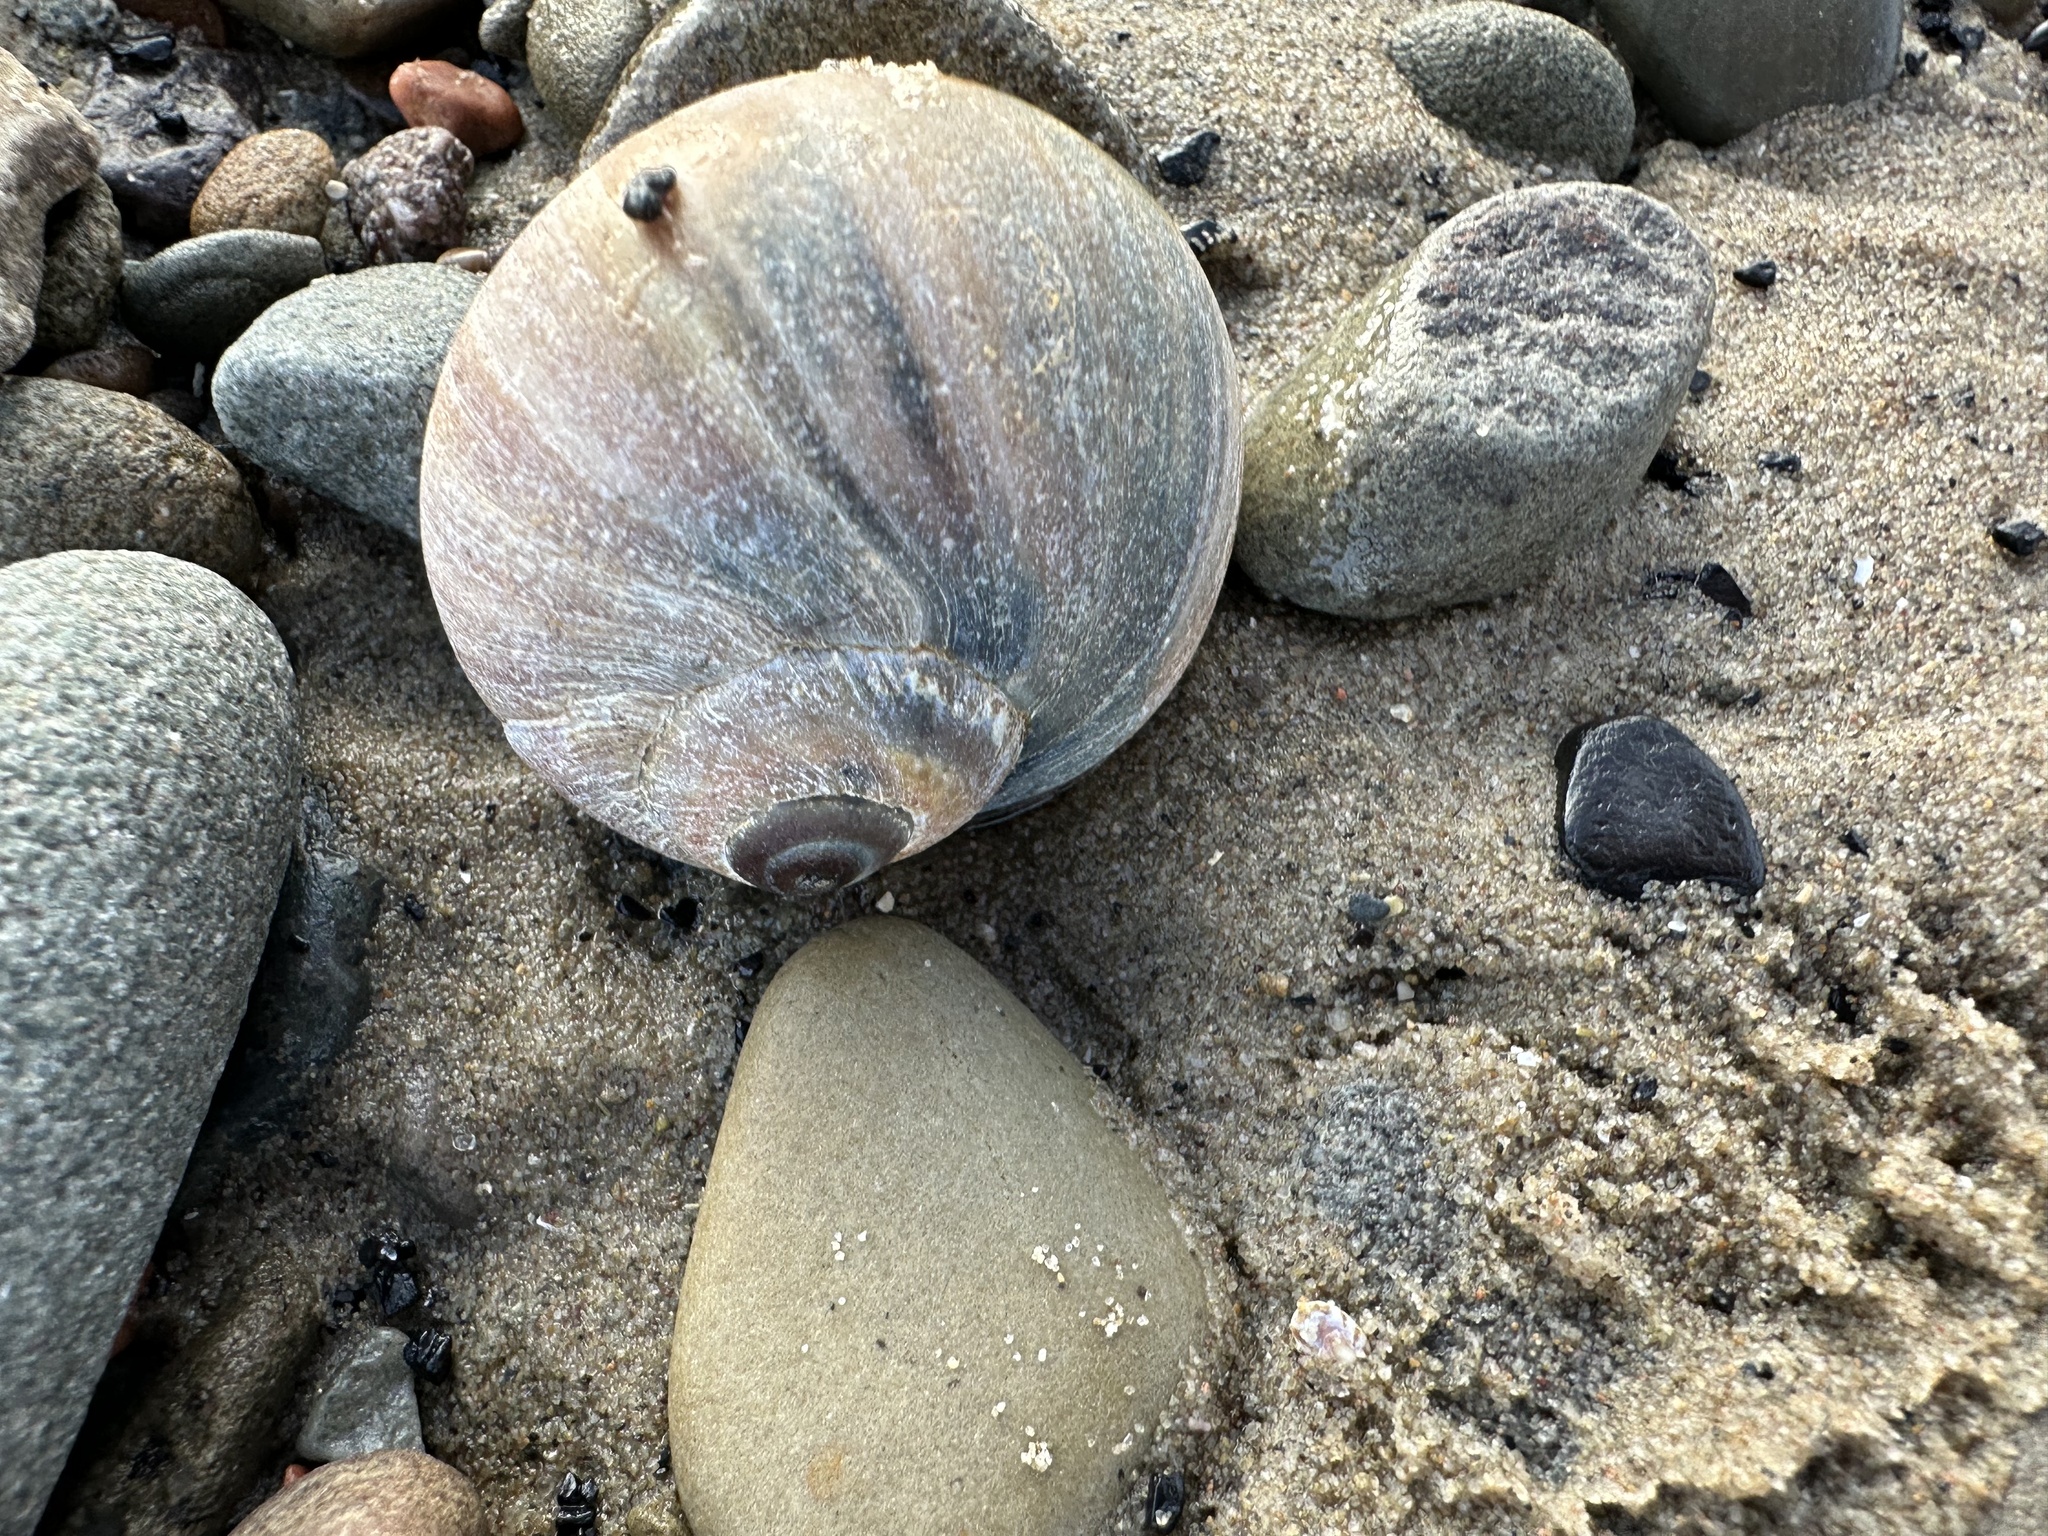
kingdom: Animalia
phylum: Mollusca
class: Gastropoda
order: Littorinimorpha
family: Naticidae
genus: Euspira
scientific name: Euspira heros
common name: Common northern moonsnail
